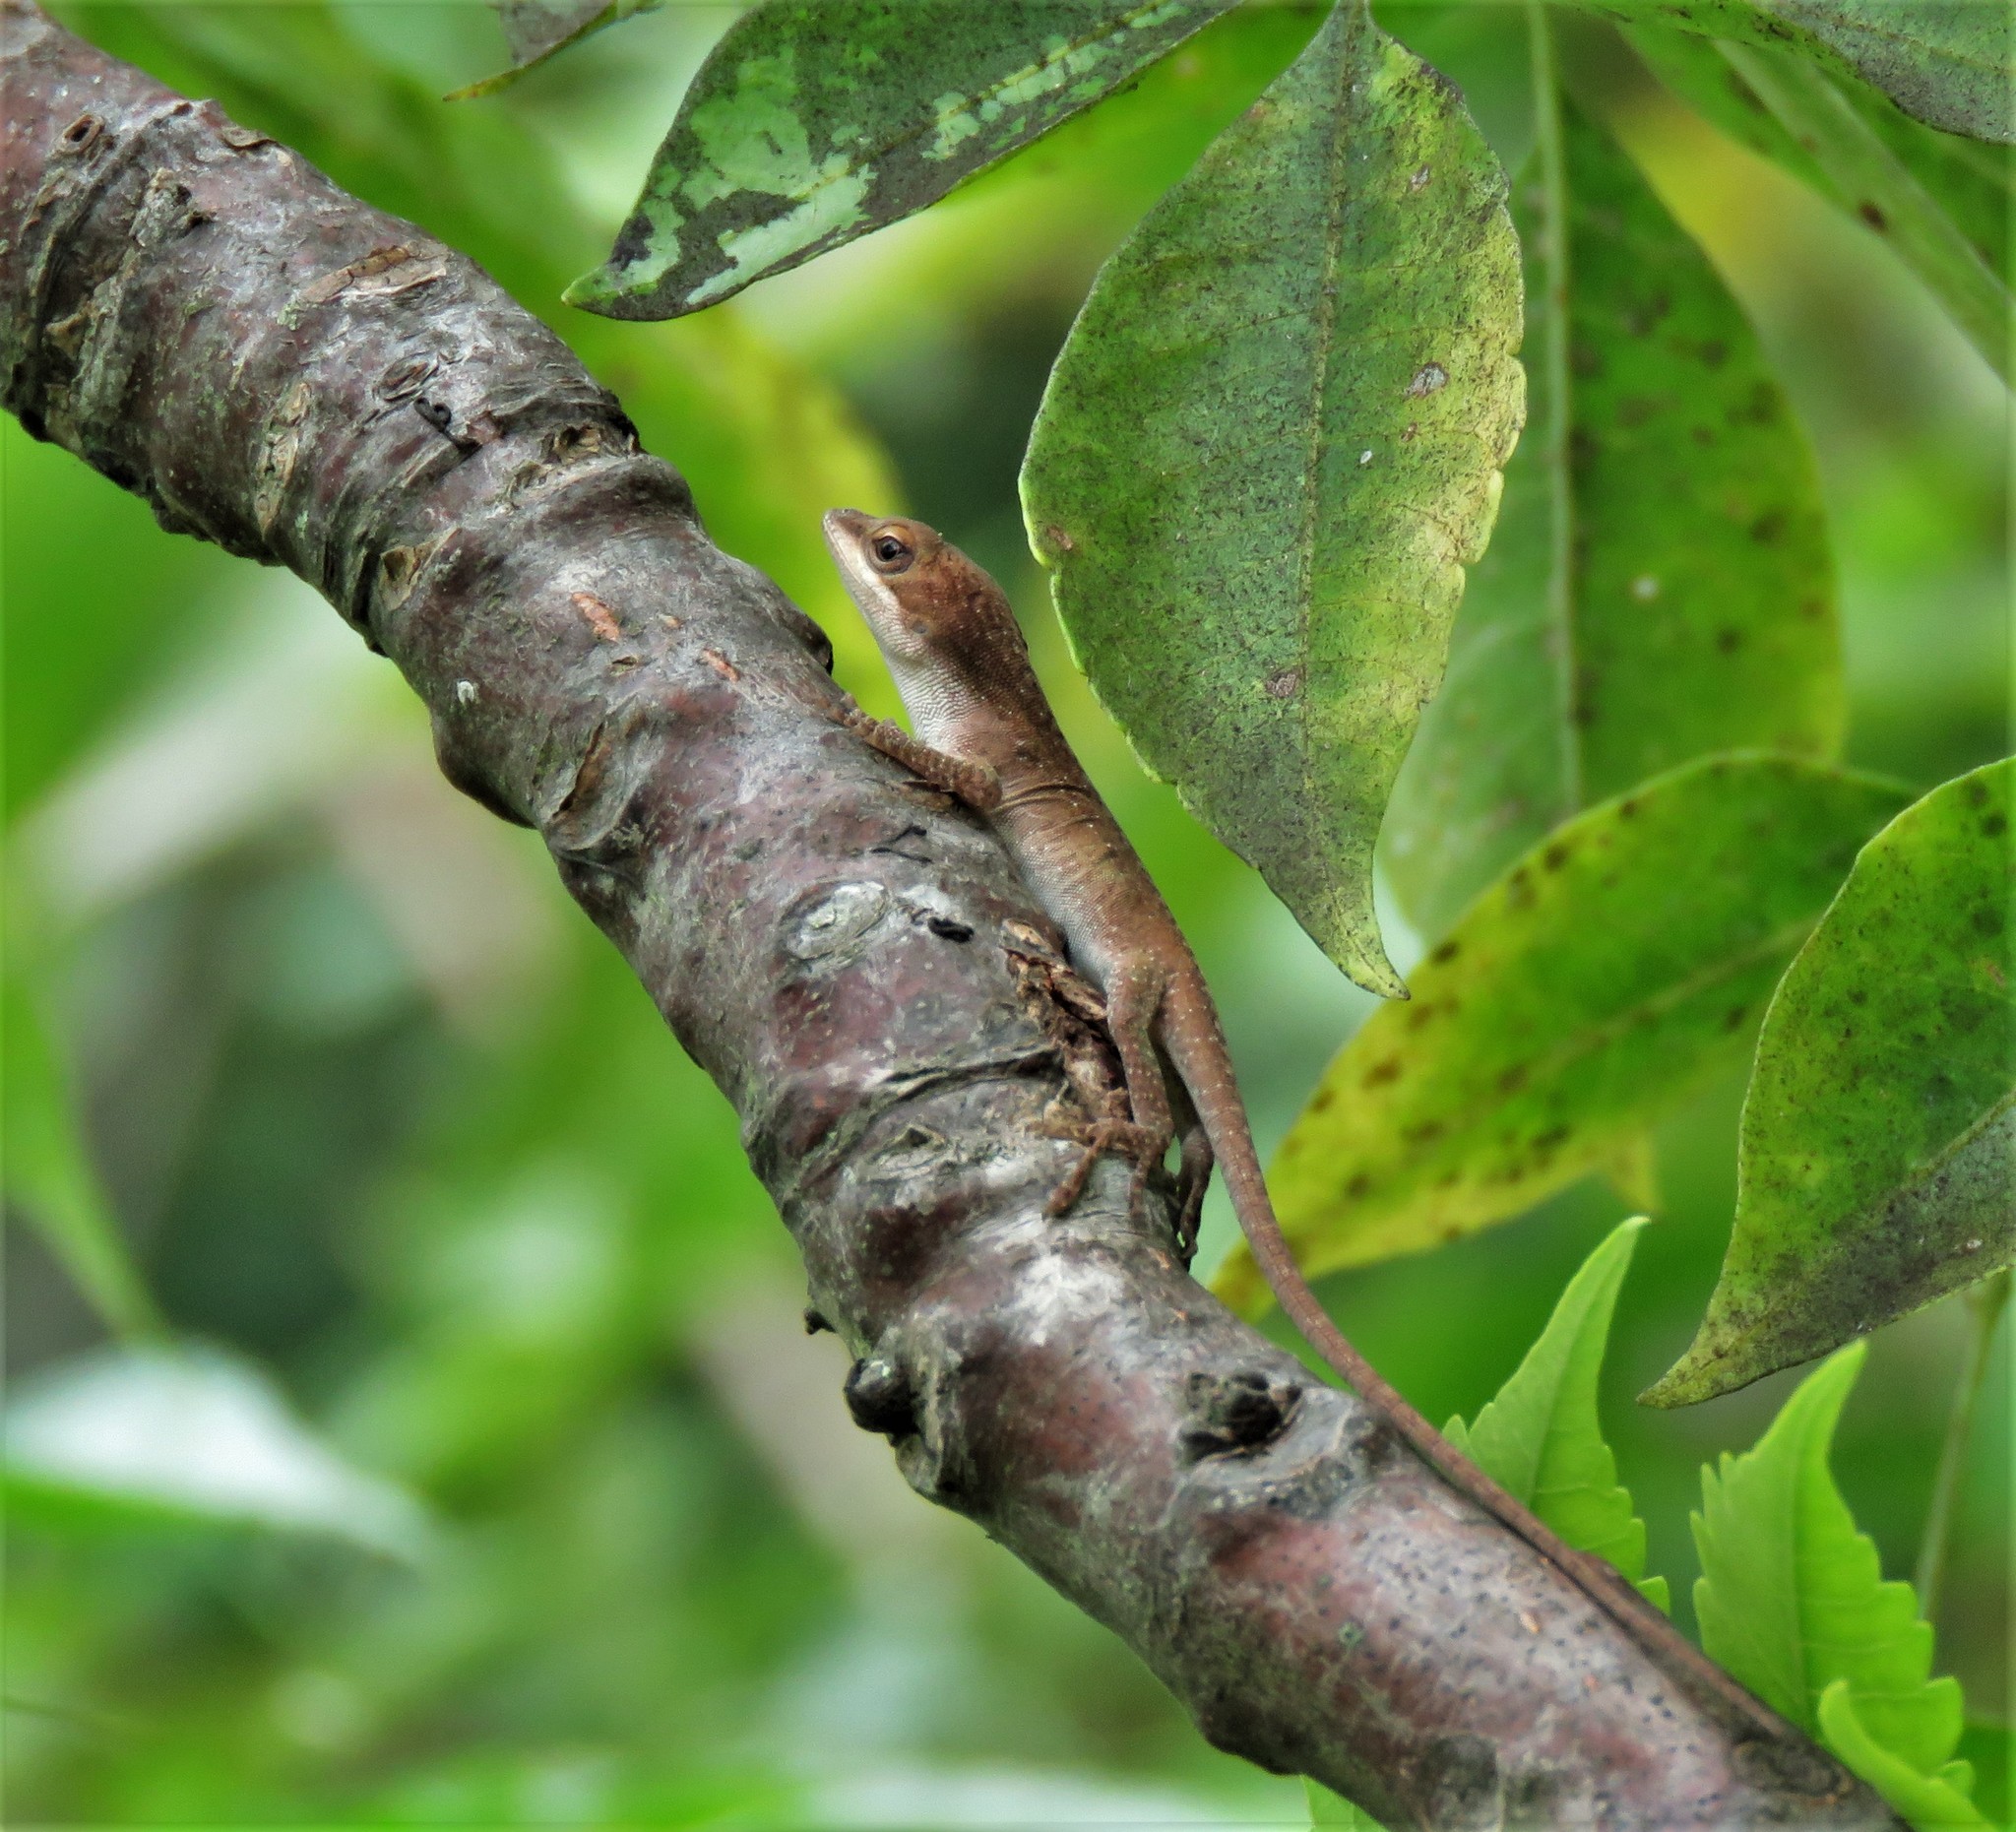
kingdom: Animalia
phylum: Chordata
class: Squamata
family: Dactyloidae
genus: Anolis
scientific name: Anolis carolinensis
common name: Green anole
